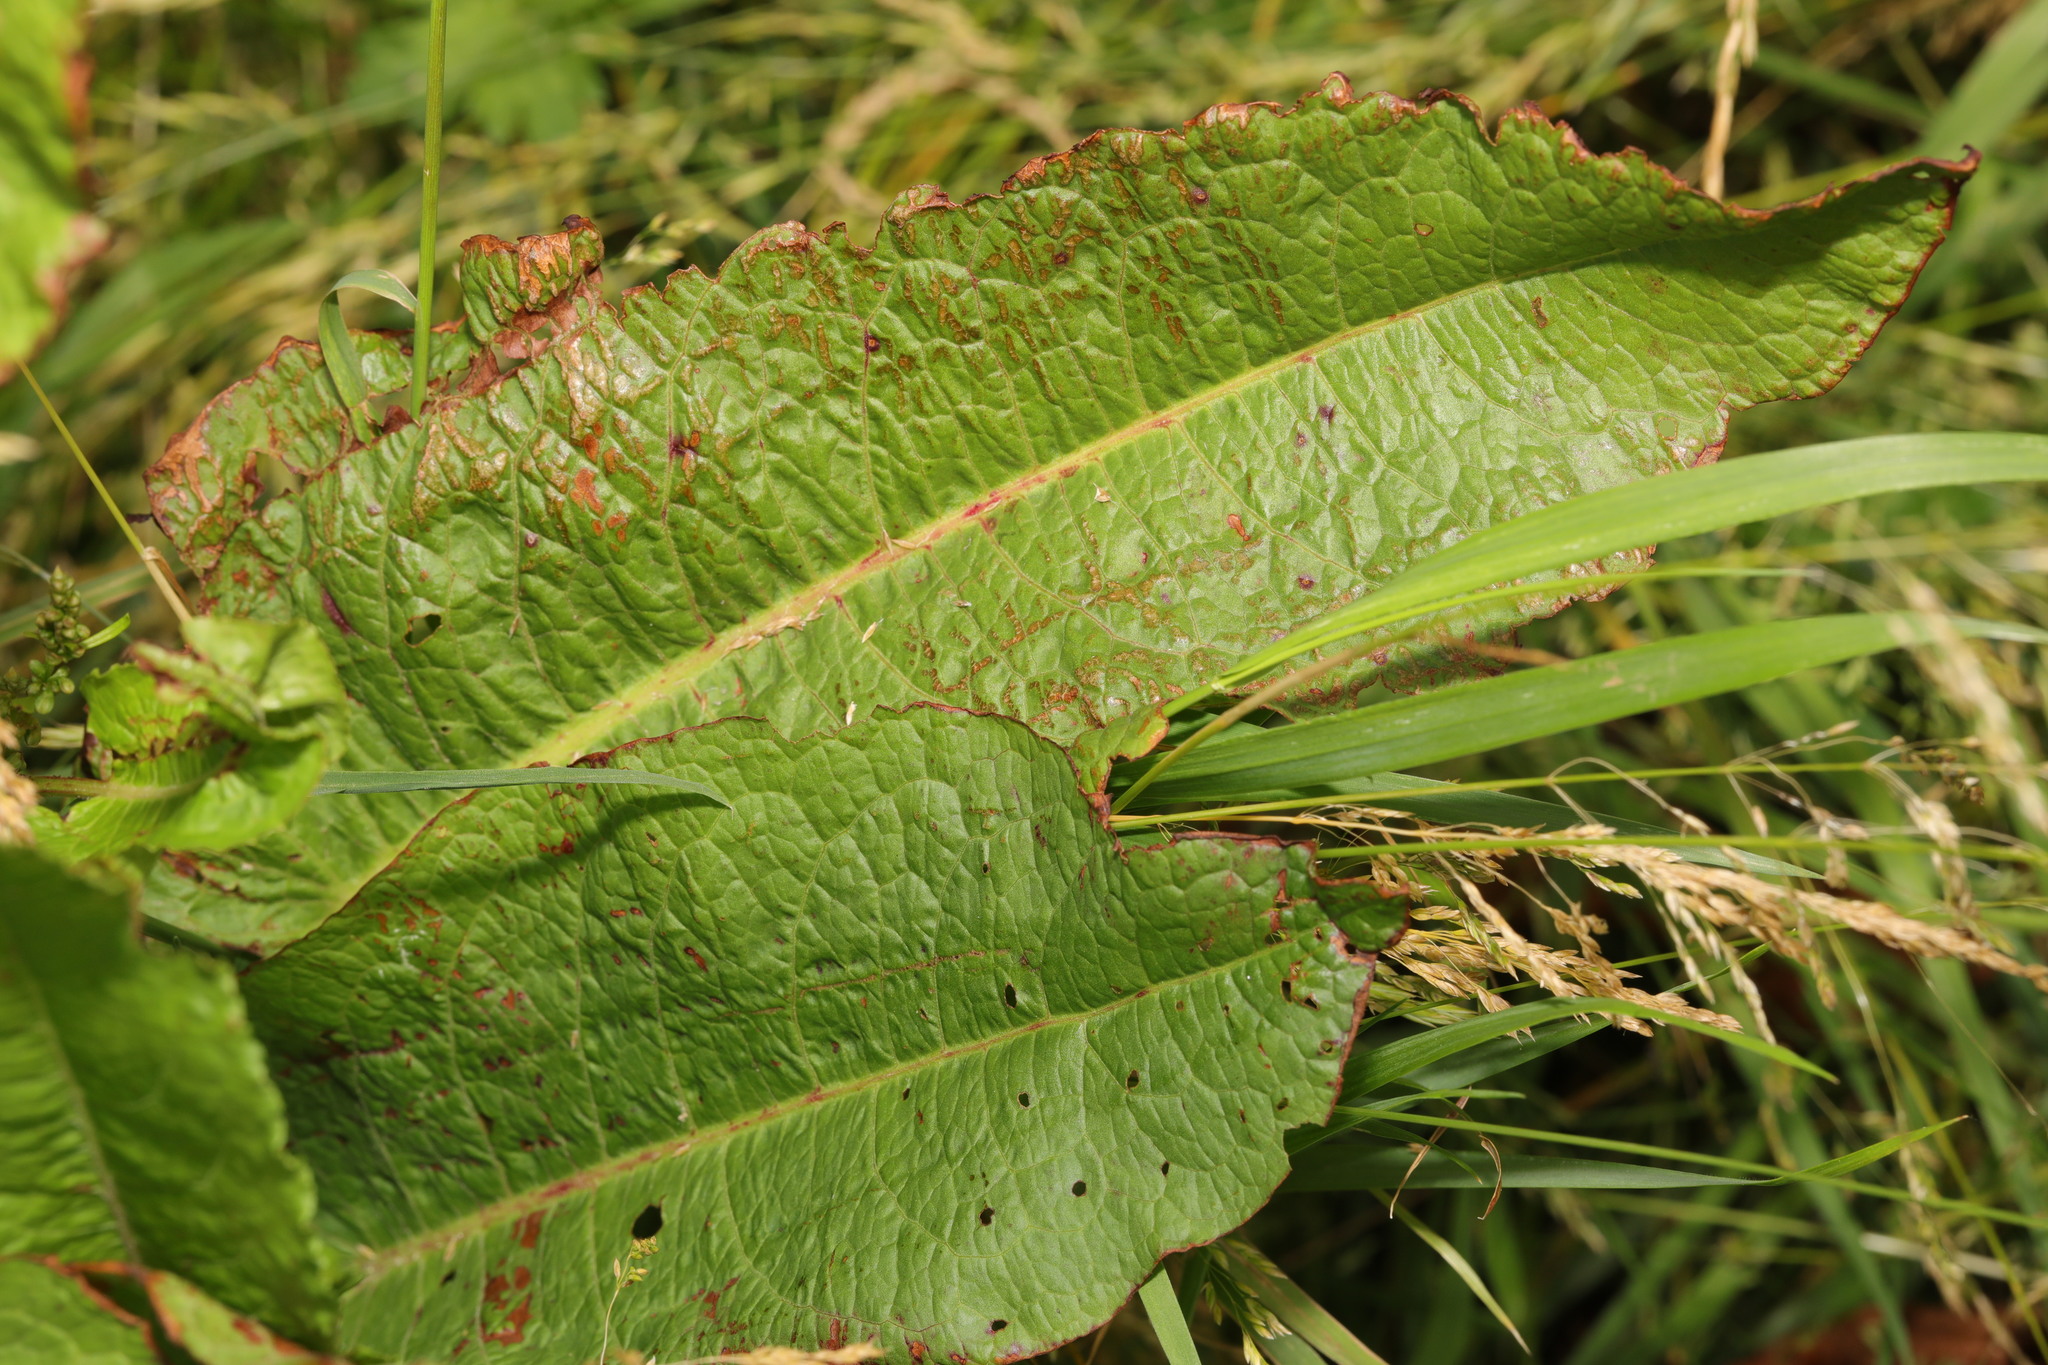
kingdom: Plantae
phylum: Tracheophyta
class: Magnoliopsida
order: Caryophyllales
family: Polygonaceae
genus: Rumex
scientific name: Rumex obtusifolius
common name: Bitter dock
